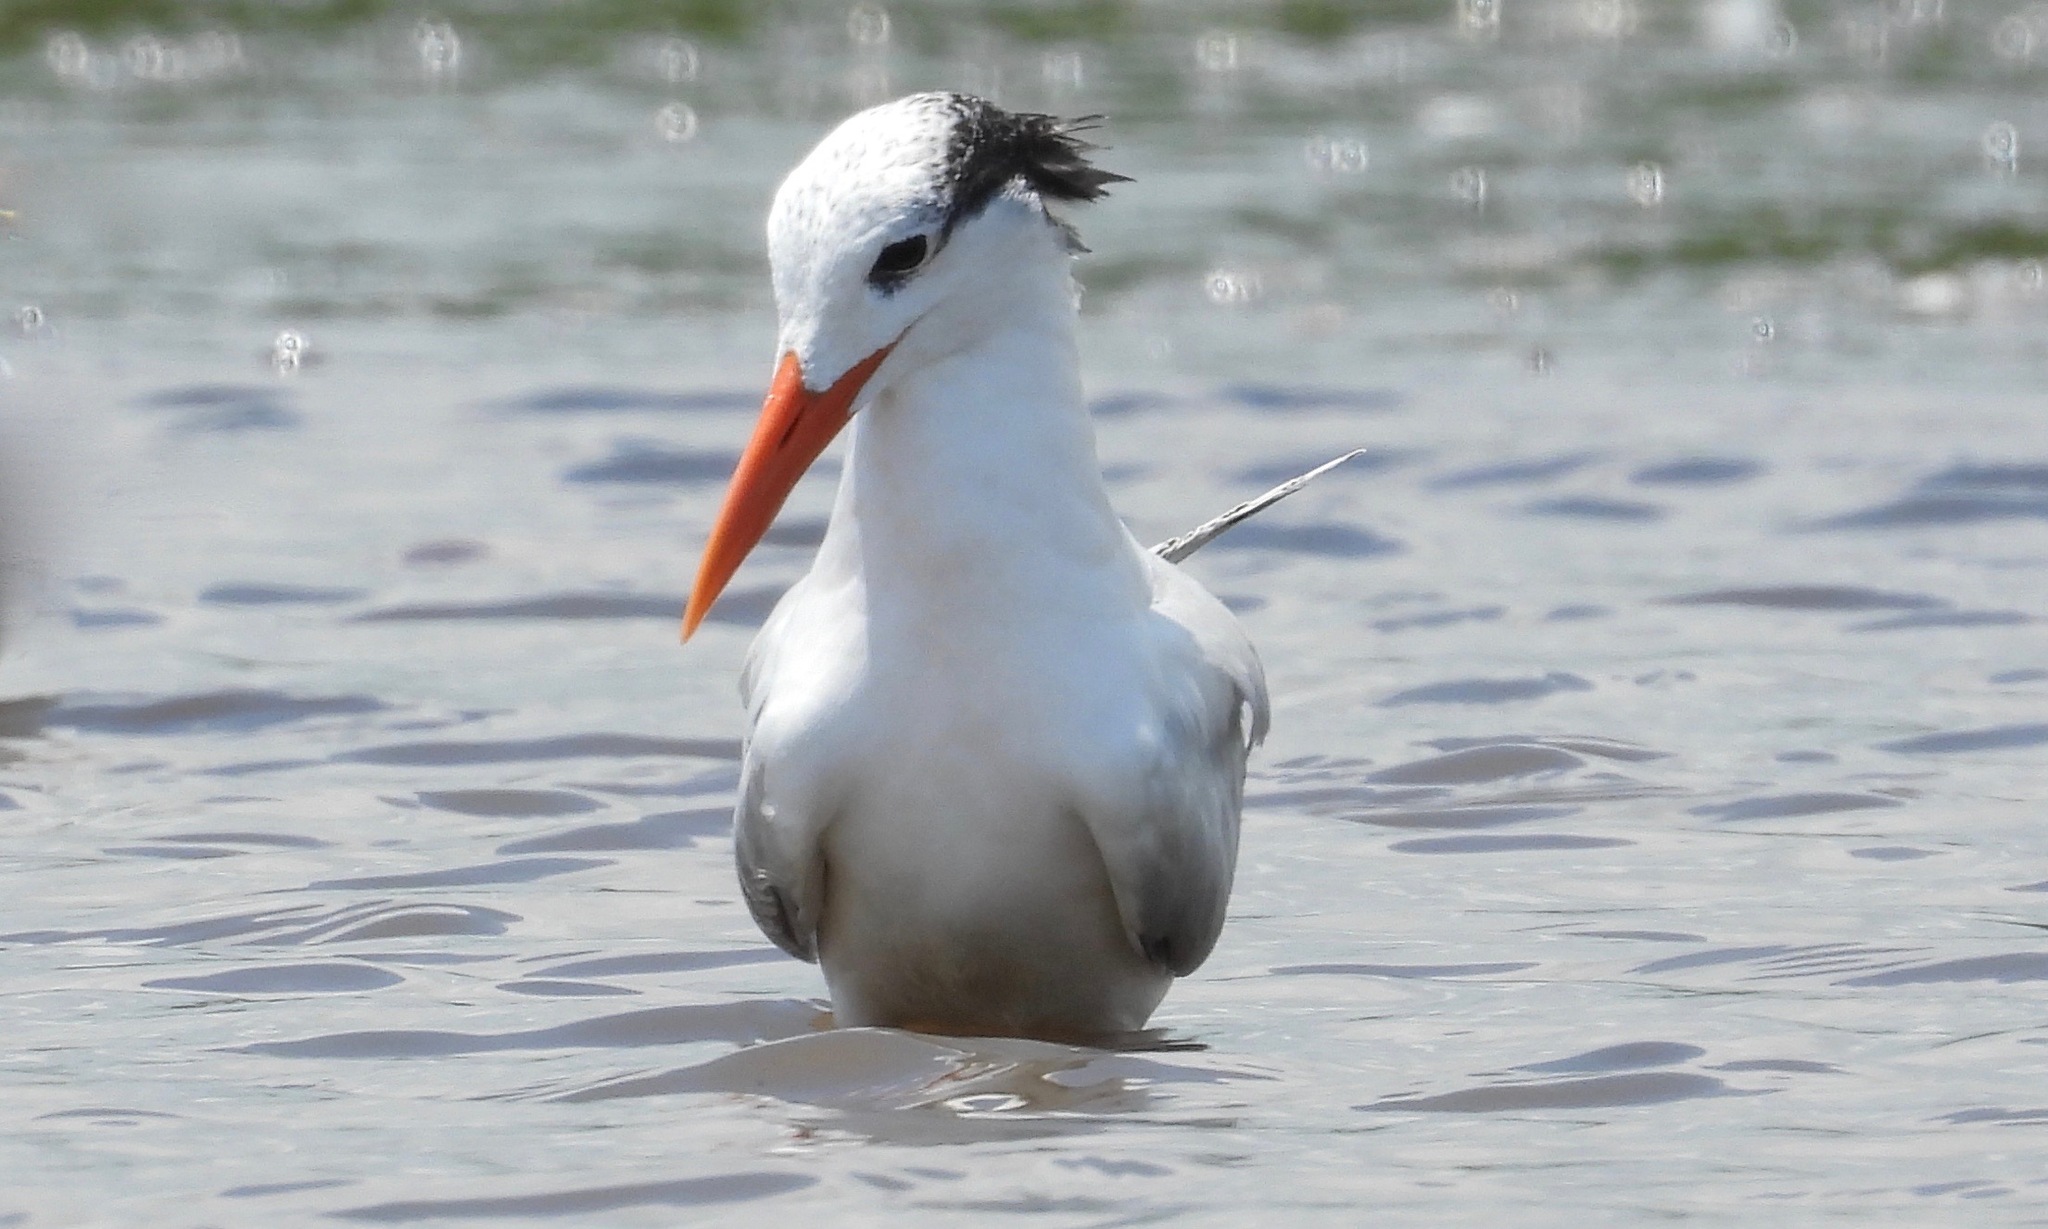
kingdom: Animalia
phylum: Chordata
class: Aves
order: Charadriiformes
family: Laridae
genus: Thalasseus
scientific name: Thalasseus maximus
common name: Royal tern
